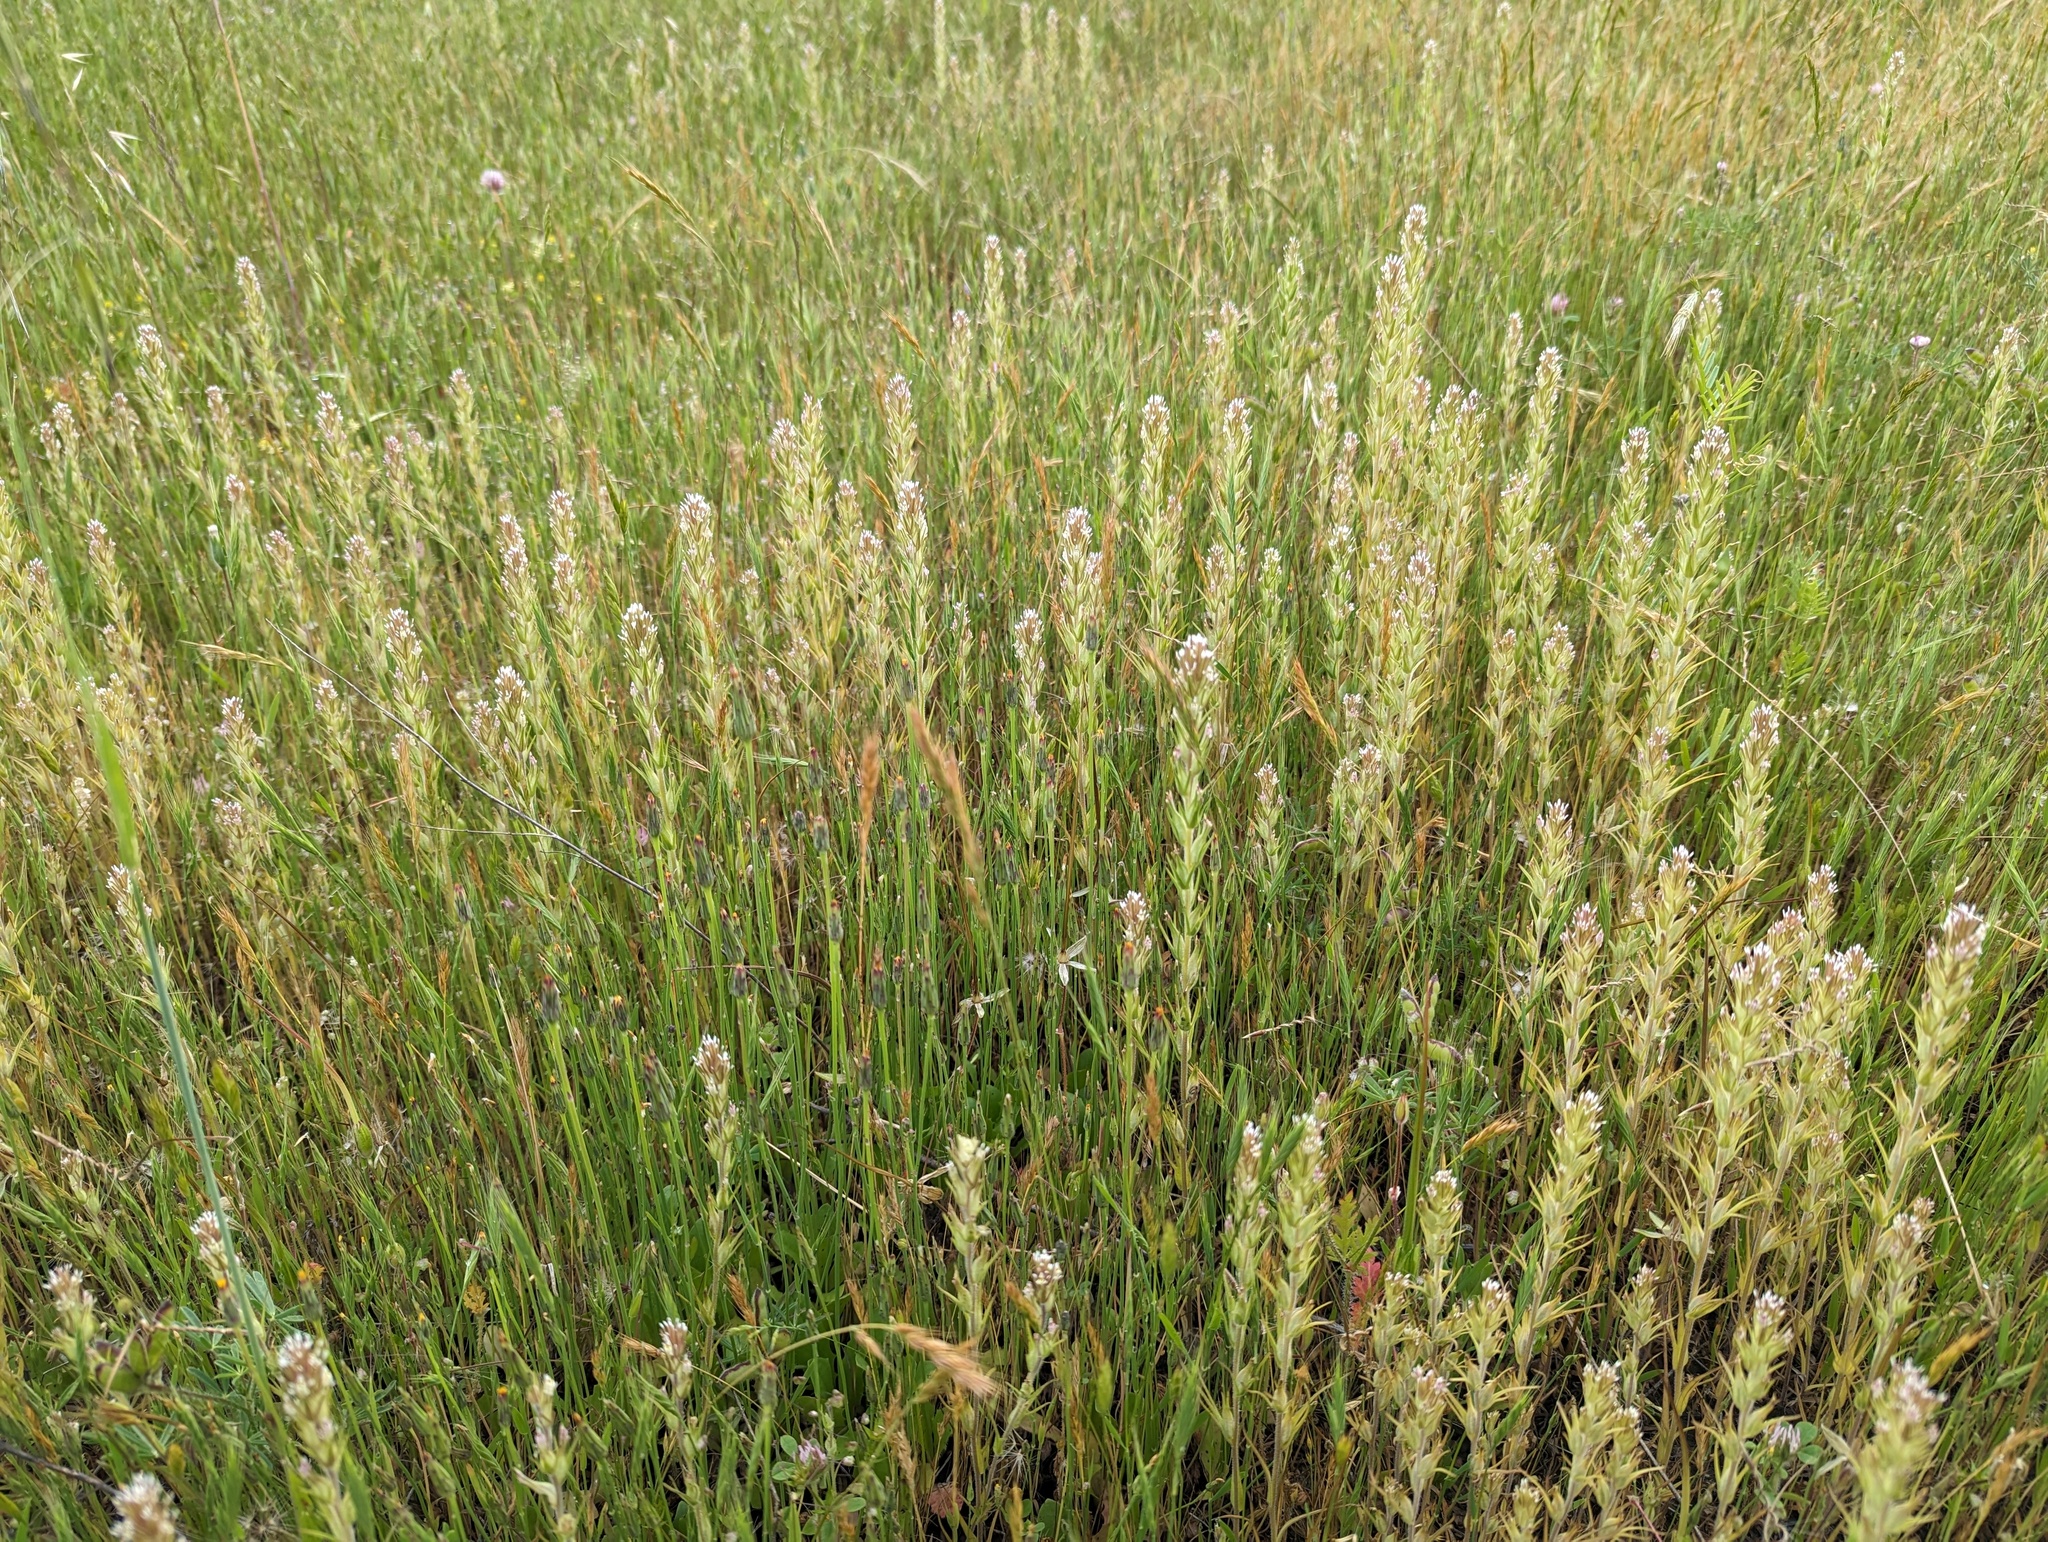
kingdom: Plantae
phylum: Tracheophyta
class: Magnoliopsida
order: Lamiales
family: Orobanchaceae
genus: Castilleja
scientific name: Castilleja attenuata
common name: Valley tassels
